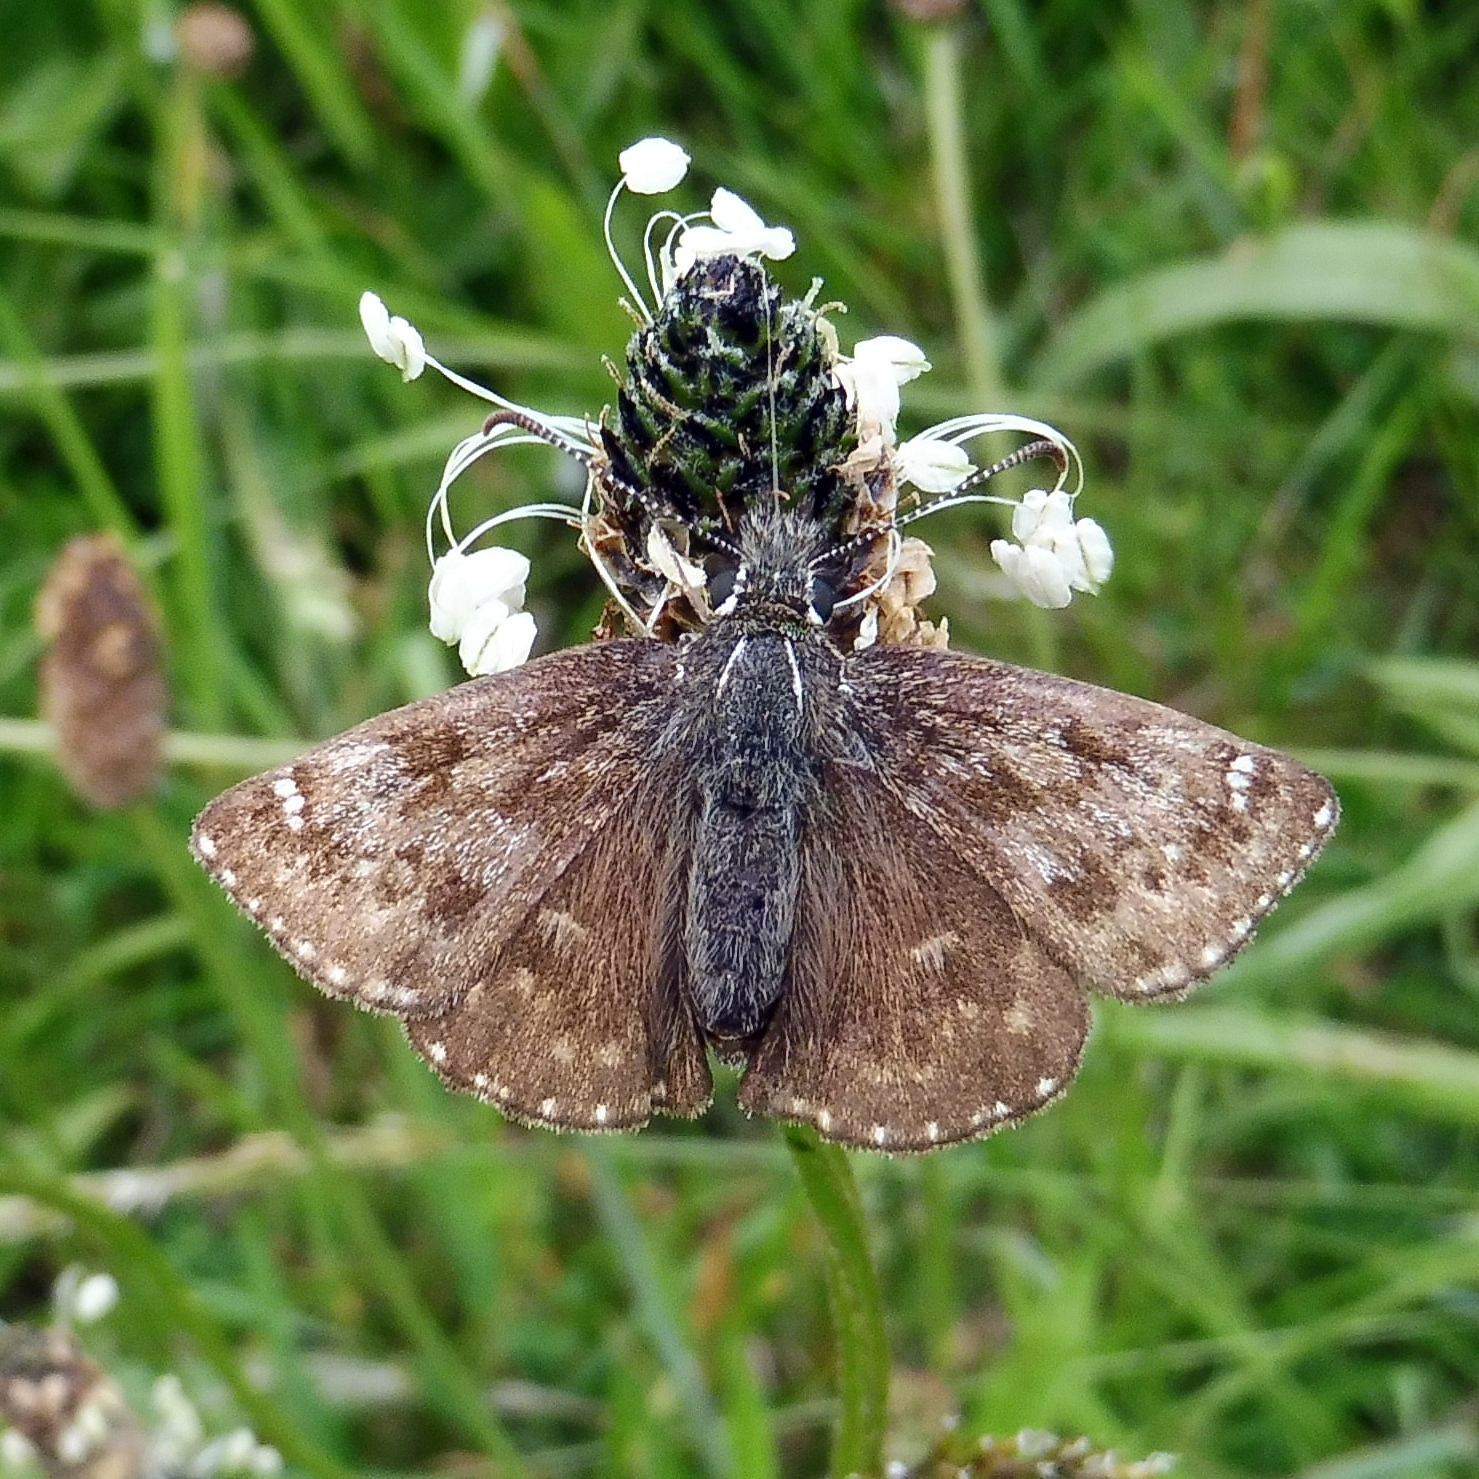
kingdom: Animalia
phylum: Arthropoda
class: Insecta
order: Lepidoptera
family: Hesperiidae
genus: Erynnis
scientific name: Erynnis tages
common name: Dingy skipper
